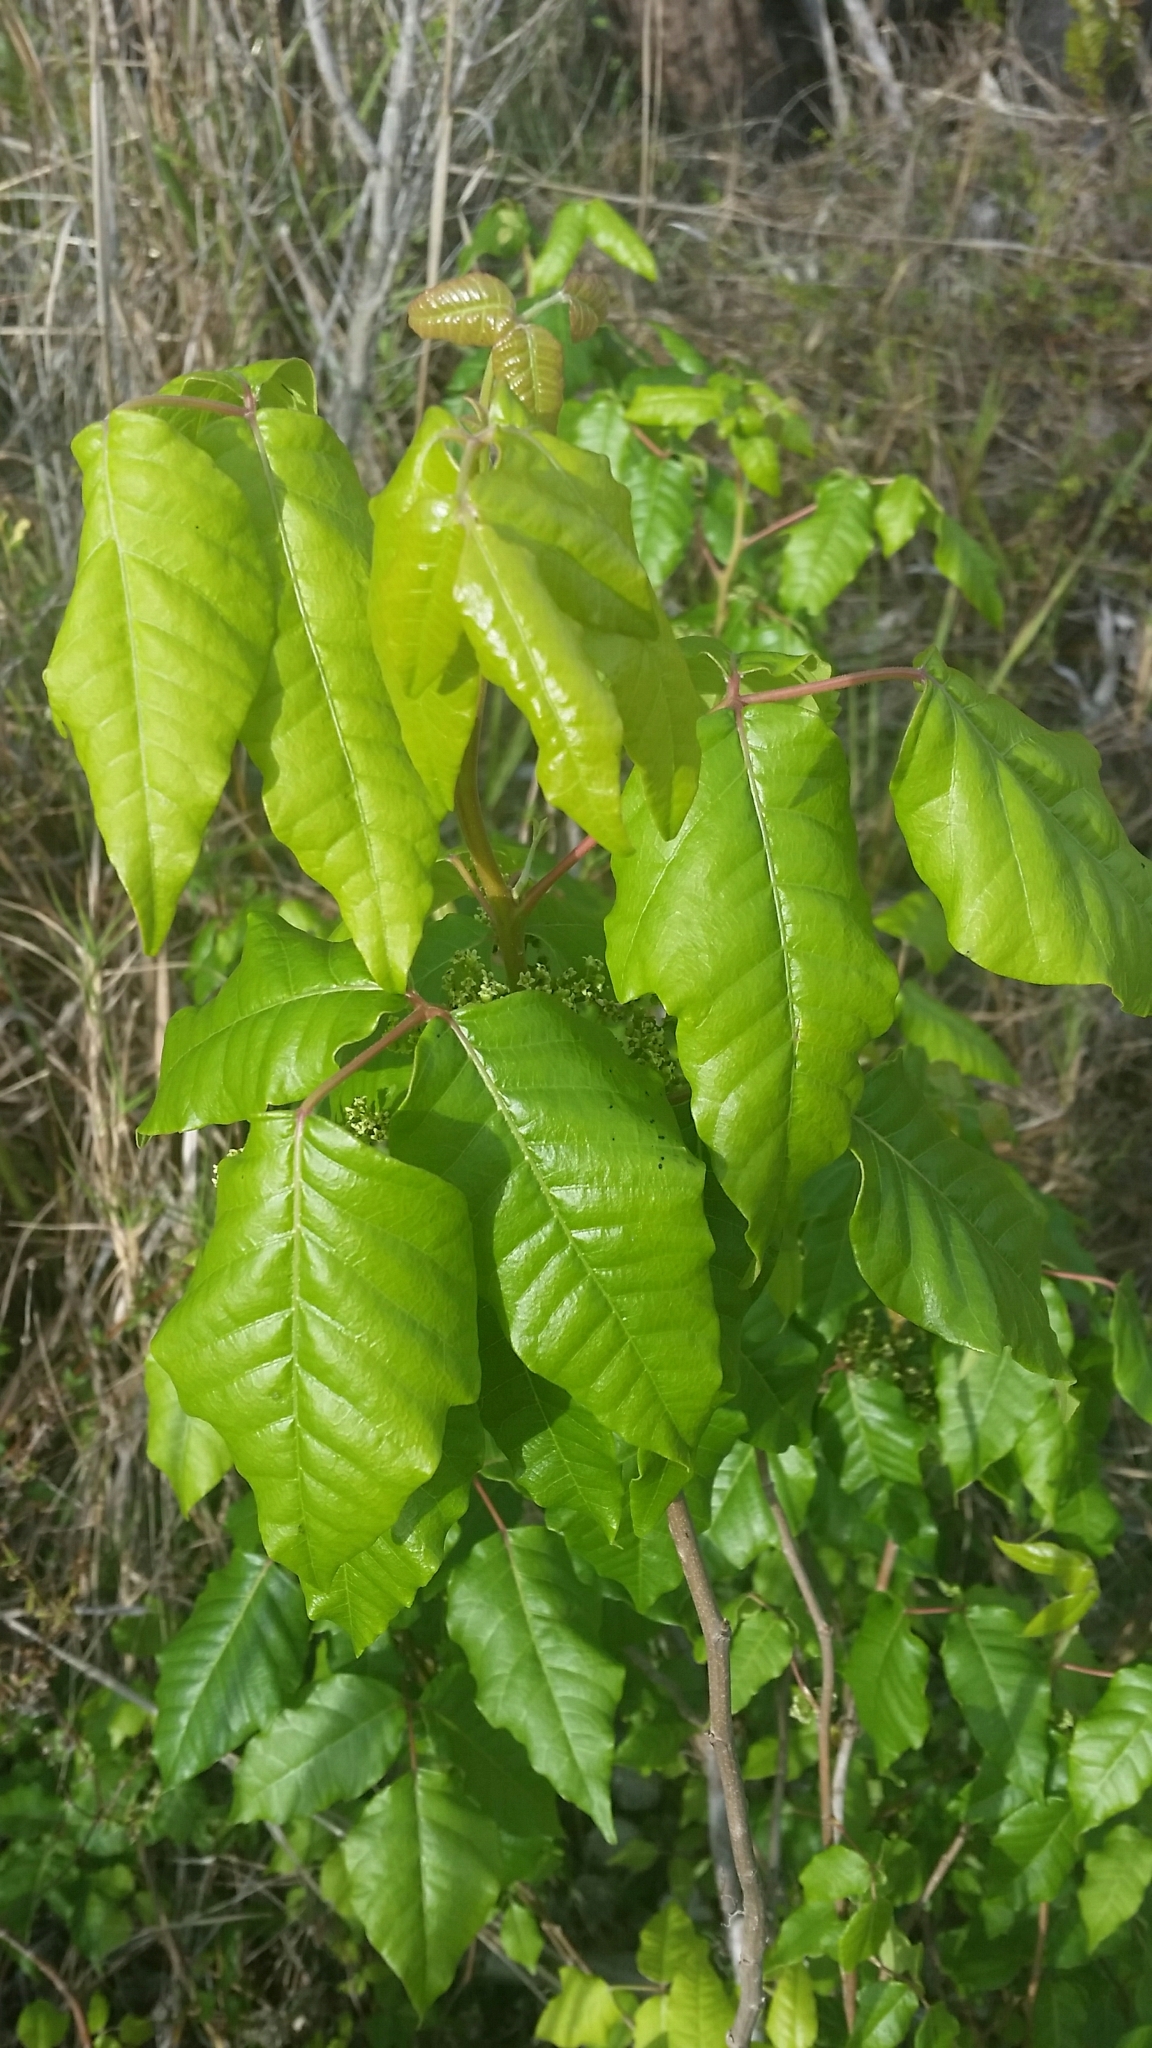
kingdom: Plantae
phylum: Tracheophyta
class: Magnoliopsida
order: Sapindales
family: Anacardiaceae
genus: Toxicodendron
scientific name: Toxicodendron radicans
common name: Poison ivy
